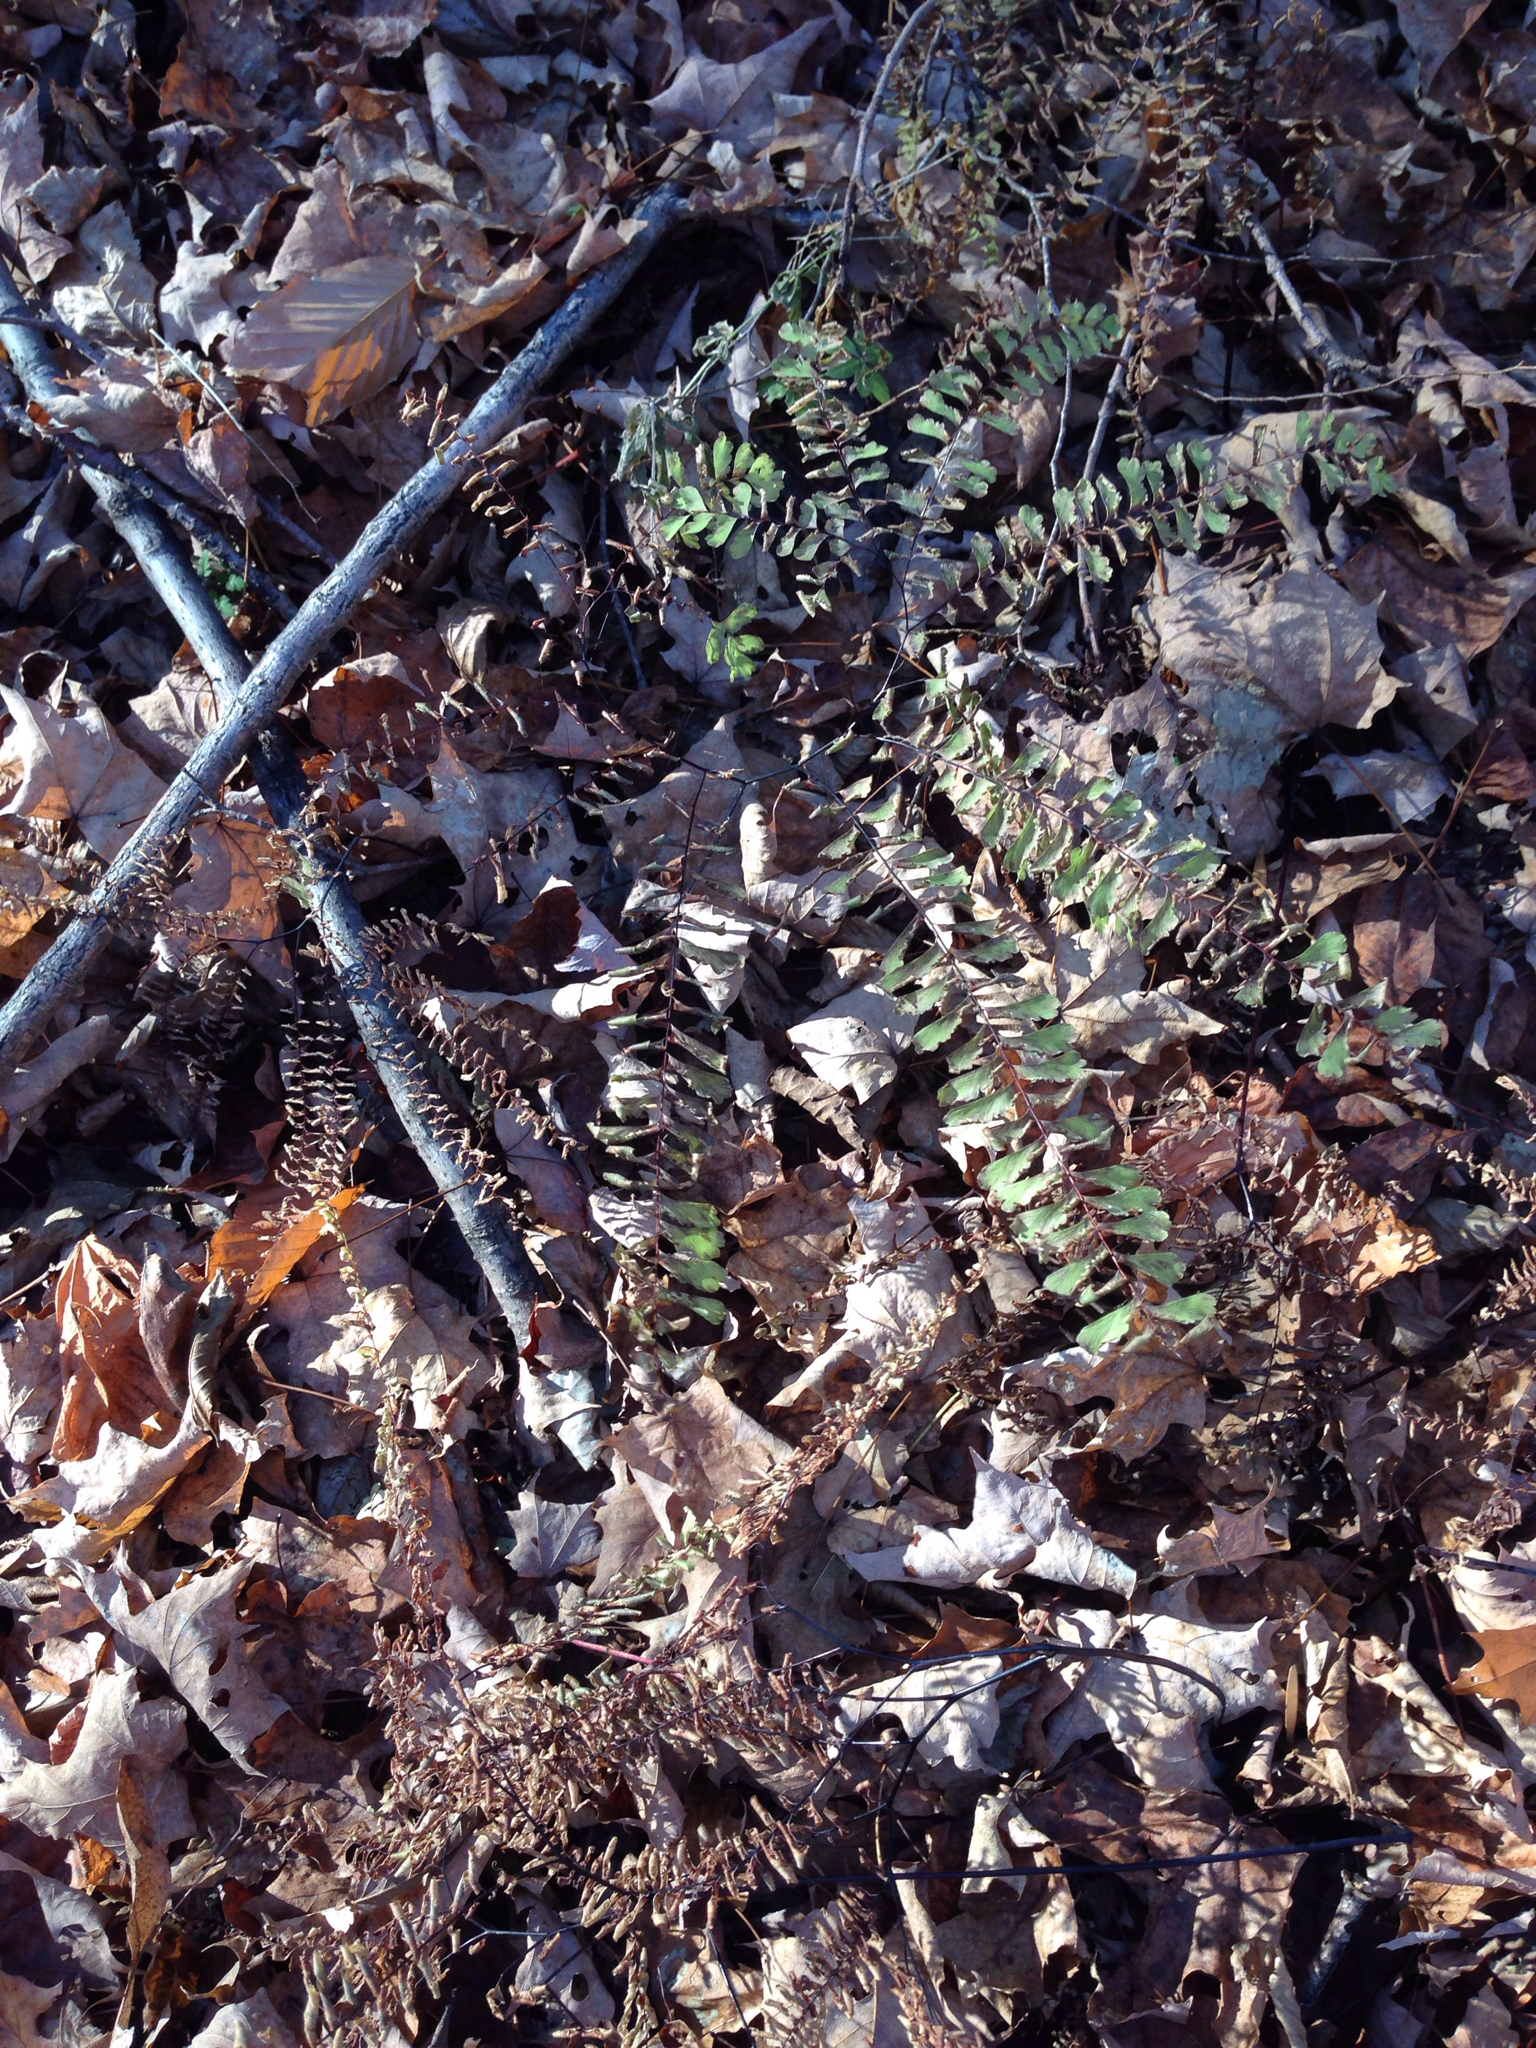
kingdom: Plantae
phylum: Tracheophyta
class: Polypodiopsida
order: Polypodiales
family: Pteridaceae
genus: Adiantum
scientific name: Adiantum pedatum
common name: Five-finger fern
